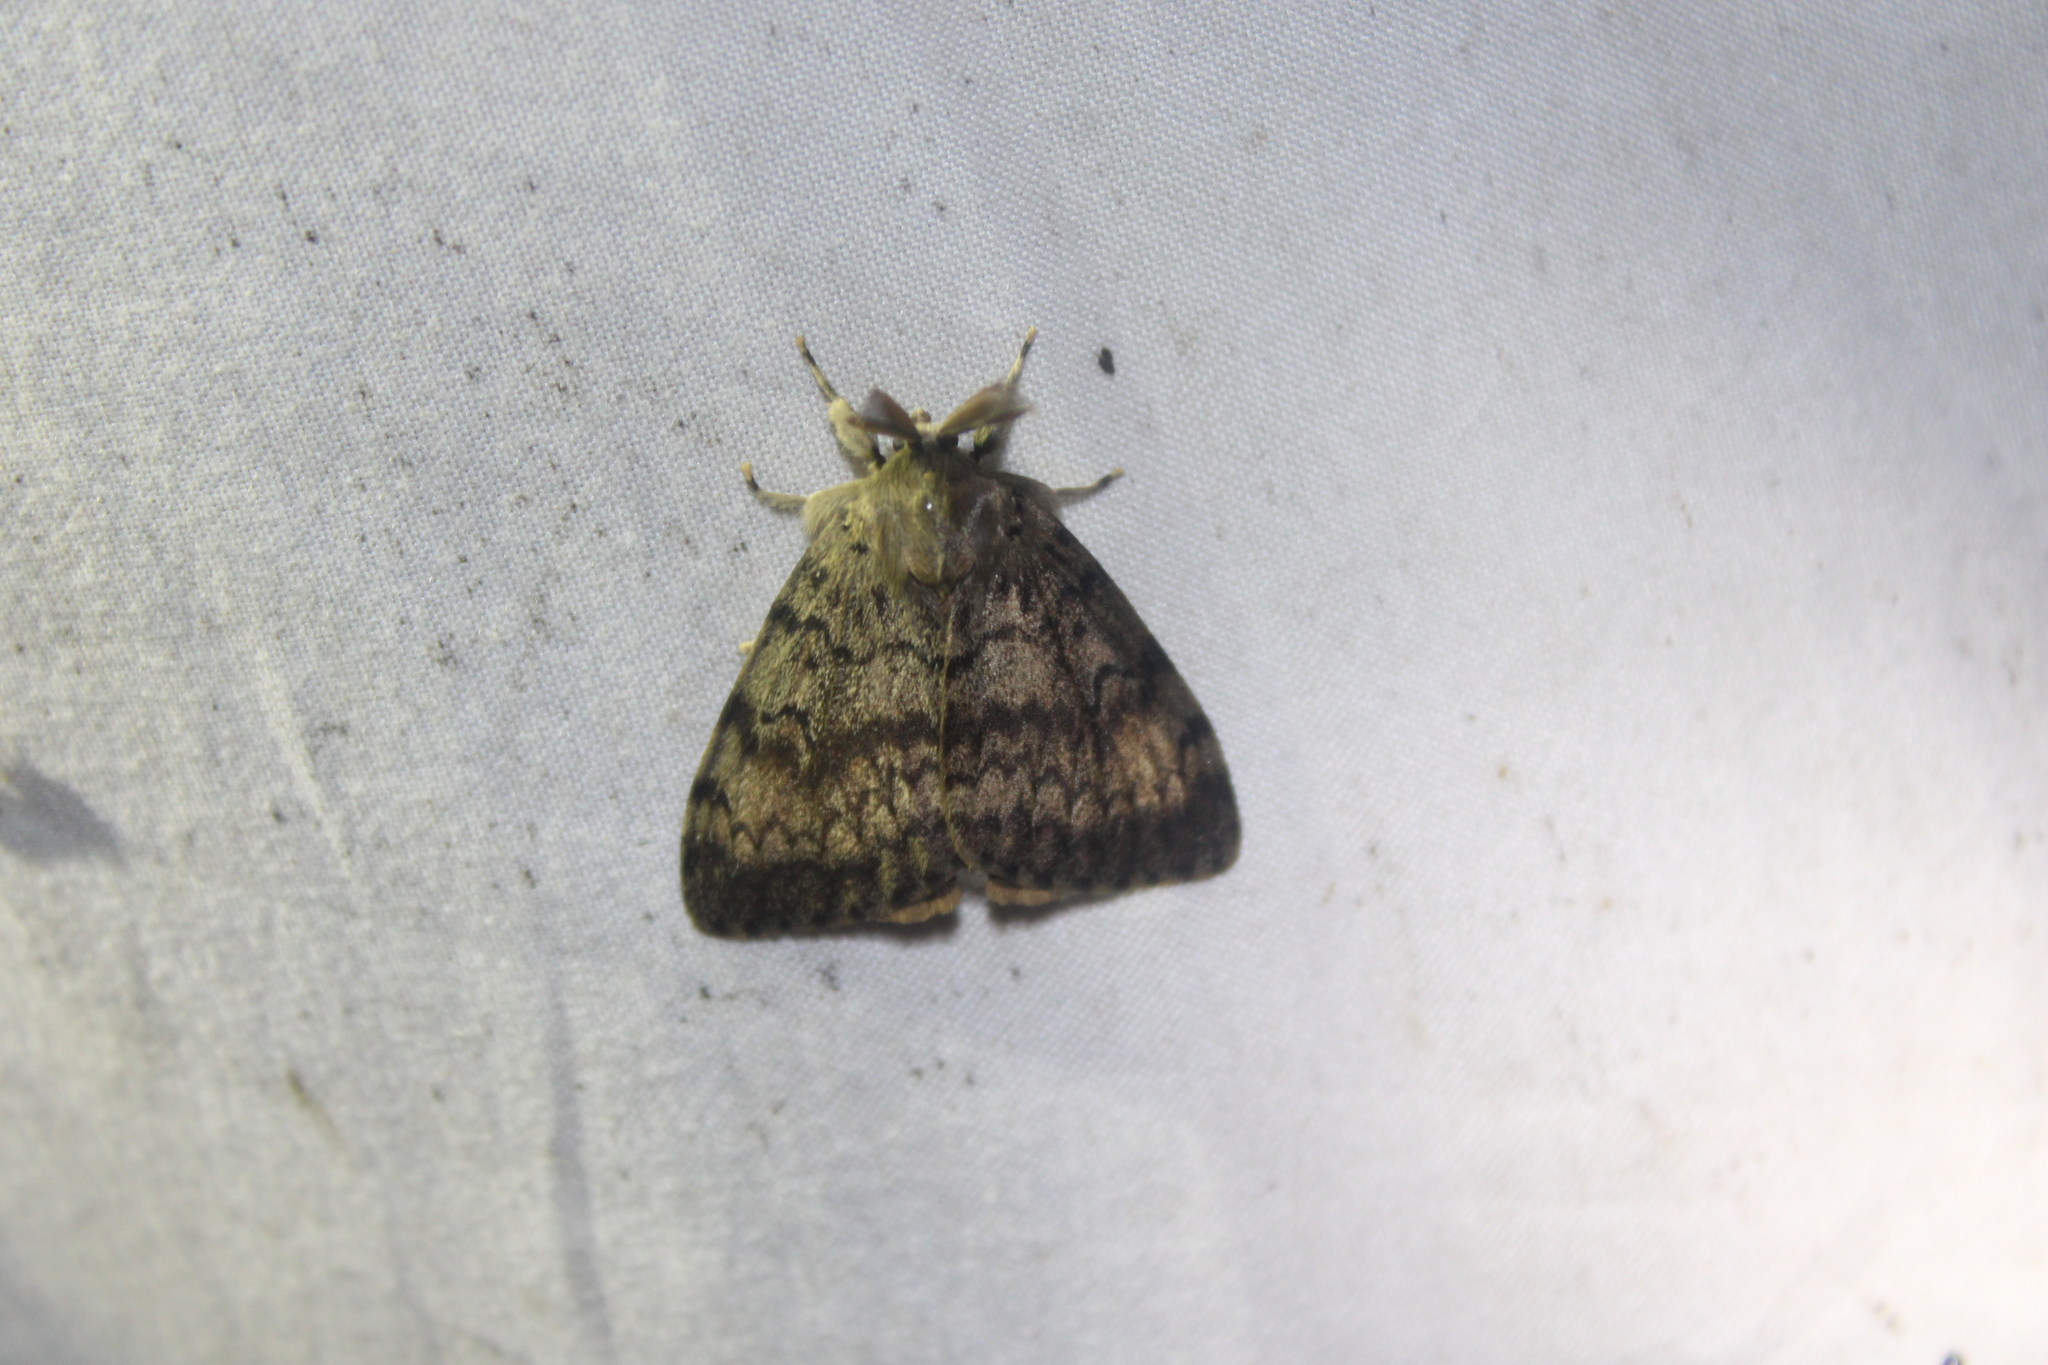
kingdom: Animalia
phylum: Arthropoda
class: Insecta
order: Lepidoptera
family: Erebidae
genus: Lymantria
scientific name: Lymantria dispar
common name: Gypsy moth
